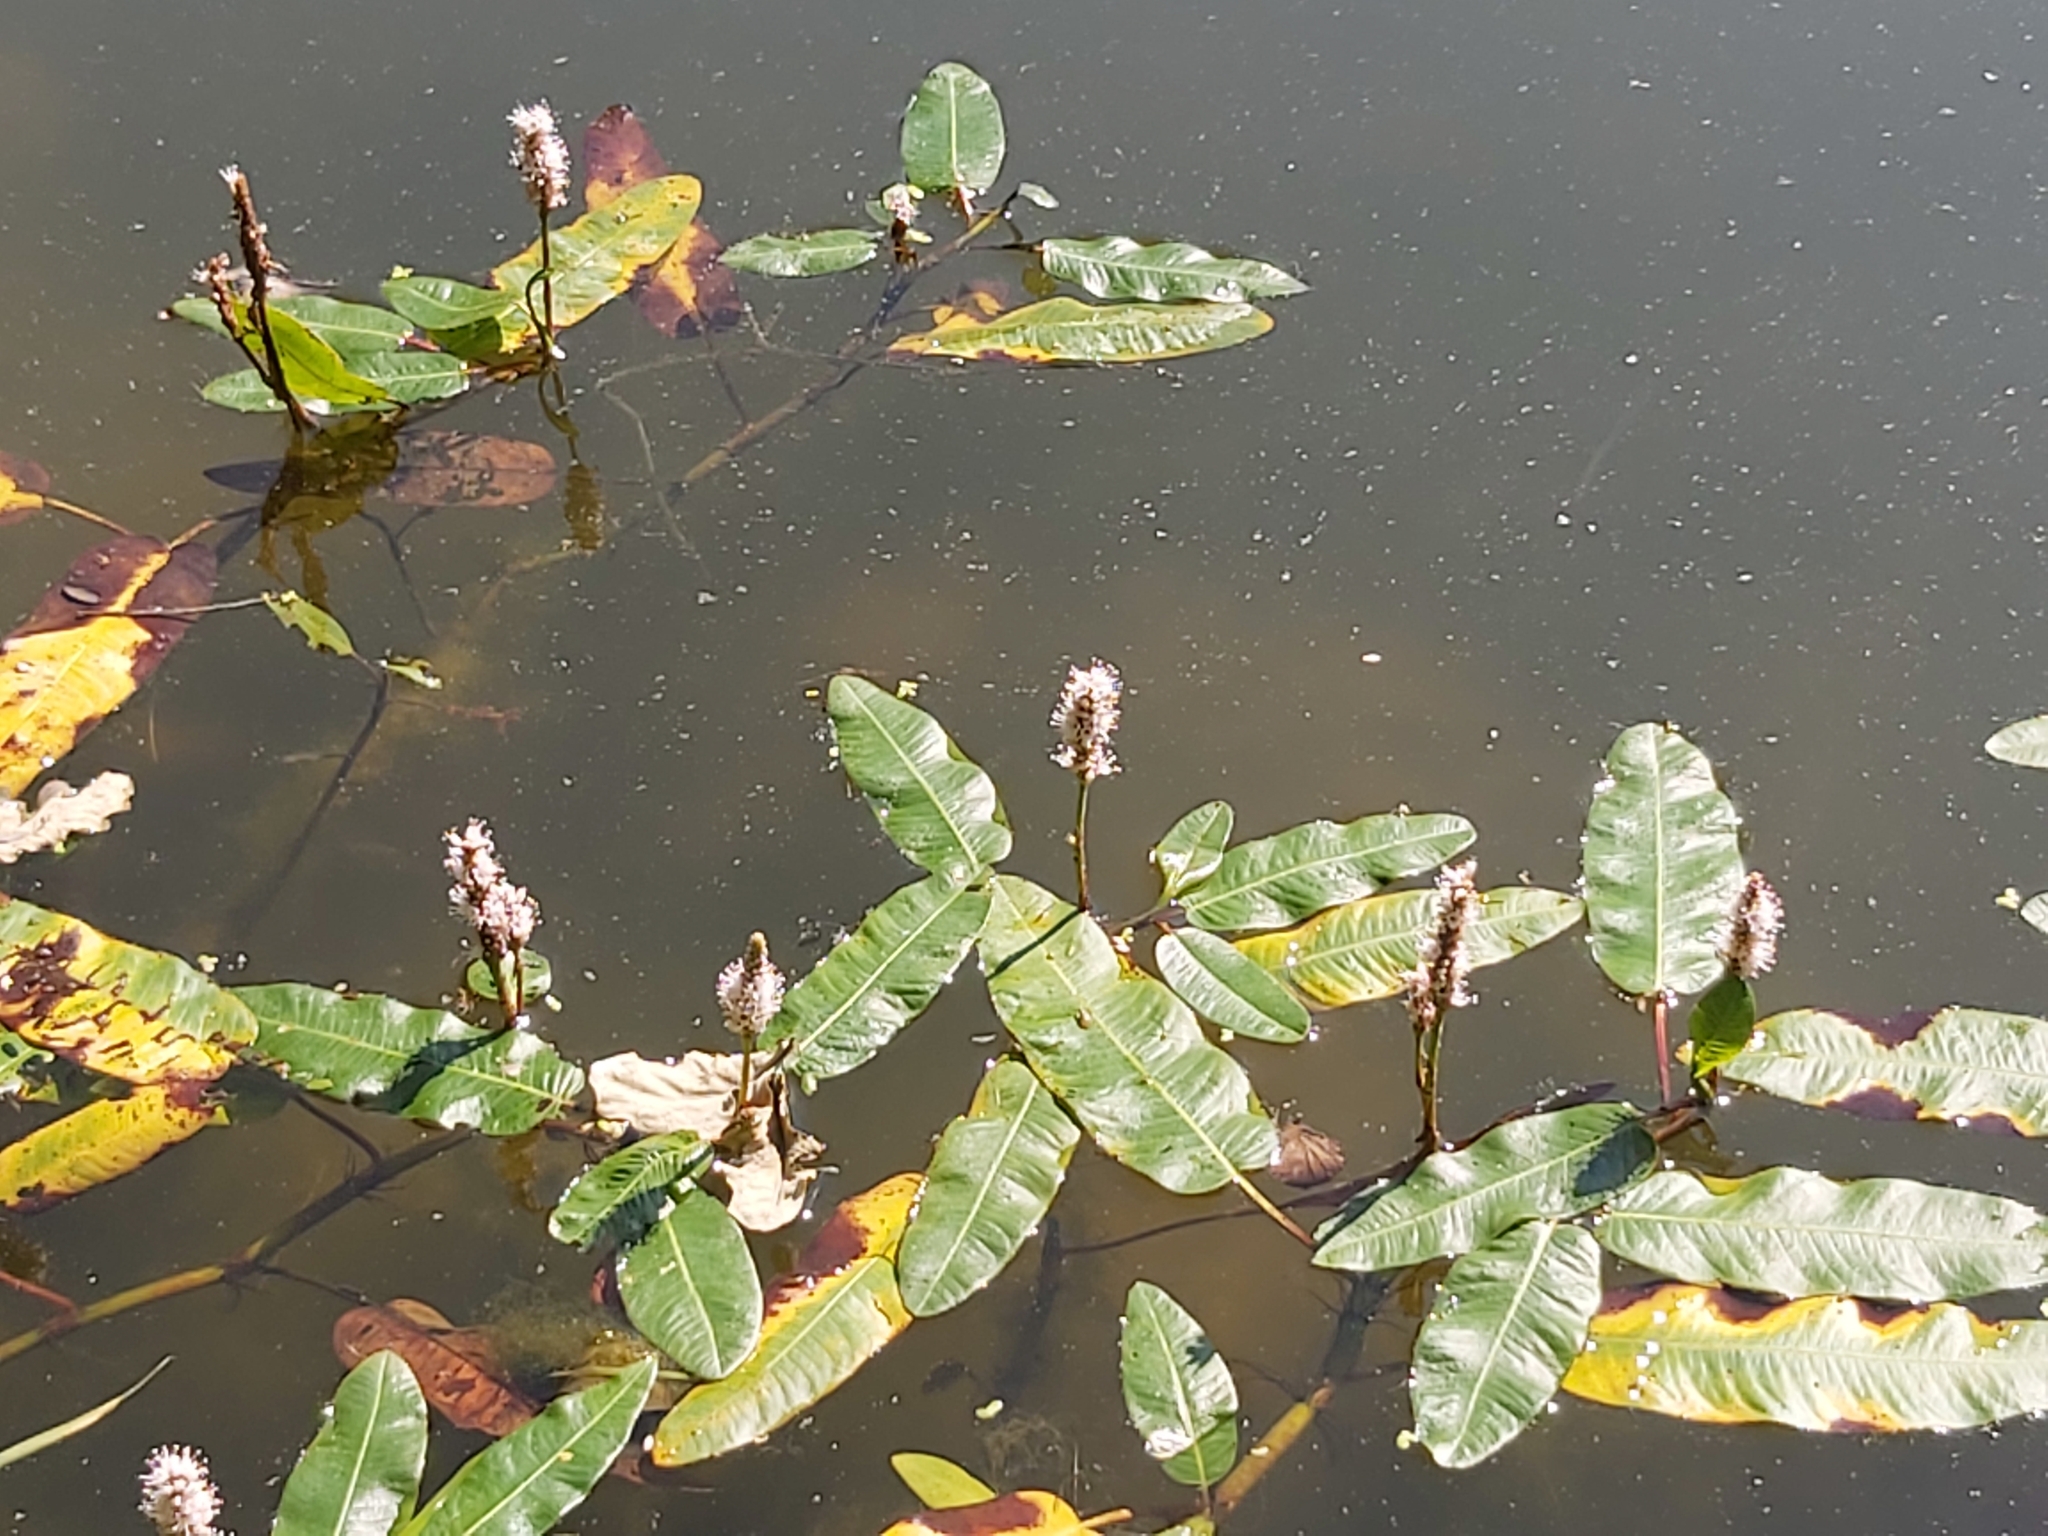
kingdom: Plantae
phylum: Tracheophyta
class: Magnoliopsida
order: Caryophyllales
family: Polygonaceae
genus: Persicaria
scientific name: Persicaria amphibia
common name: Amphibious bistort
